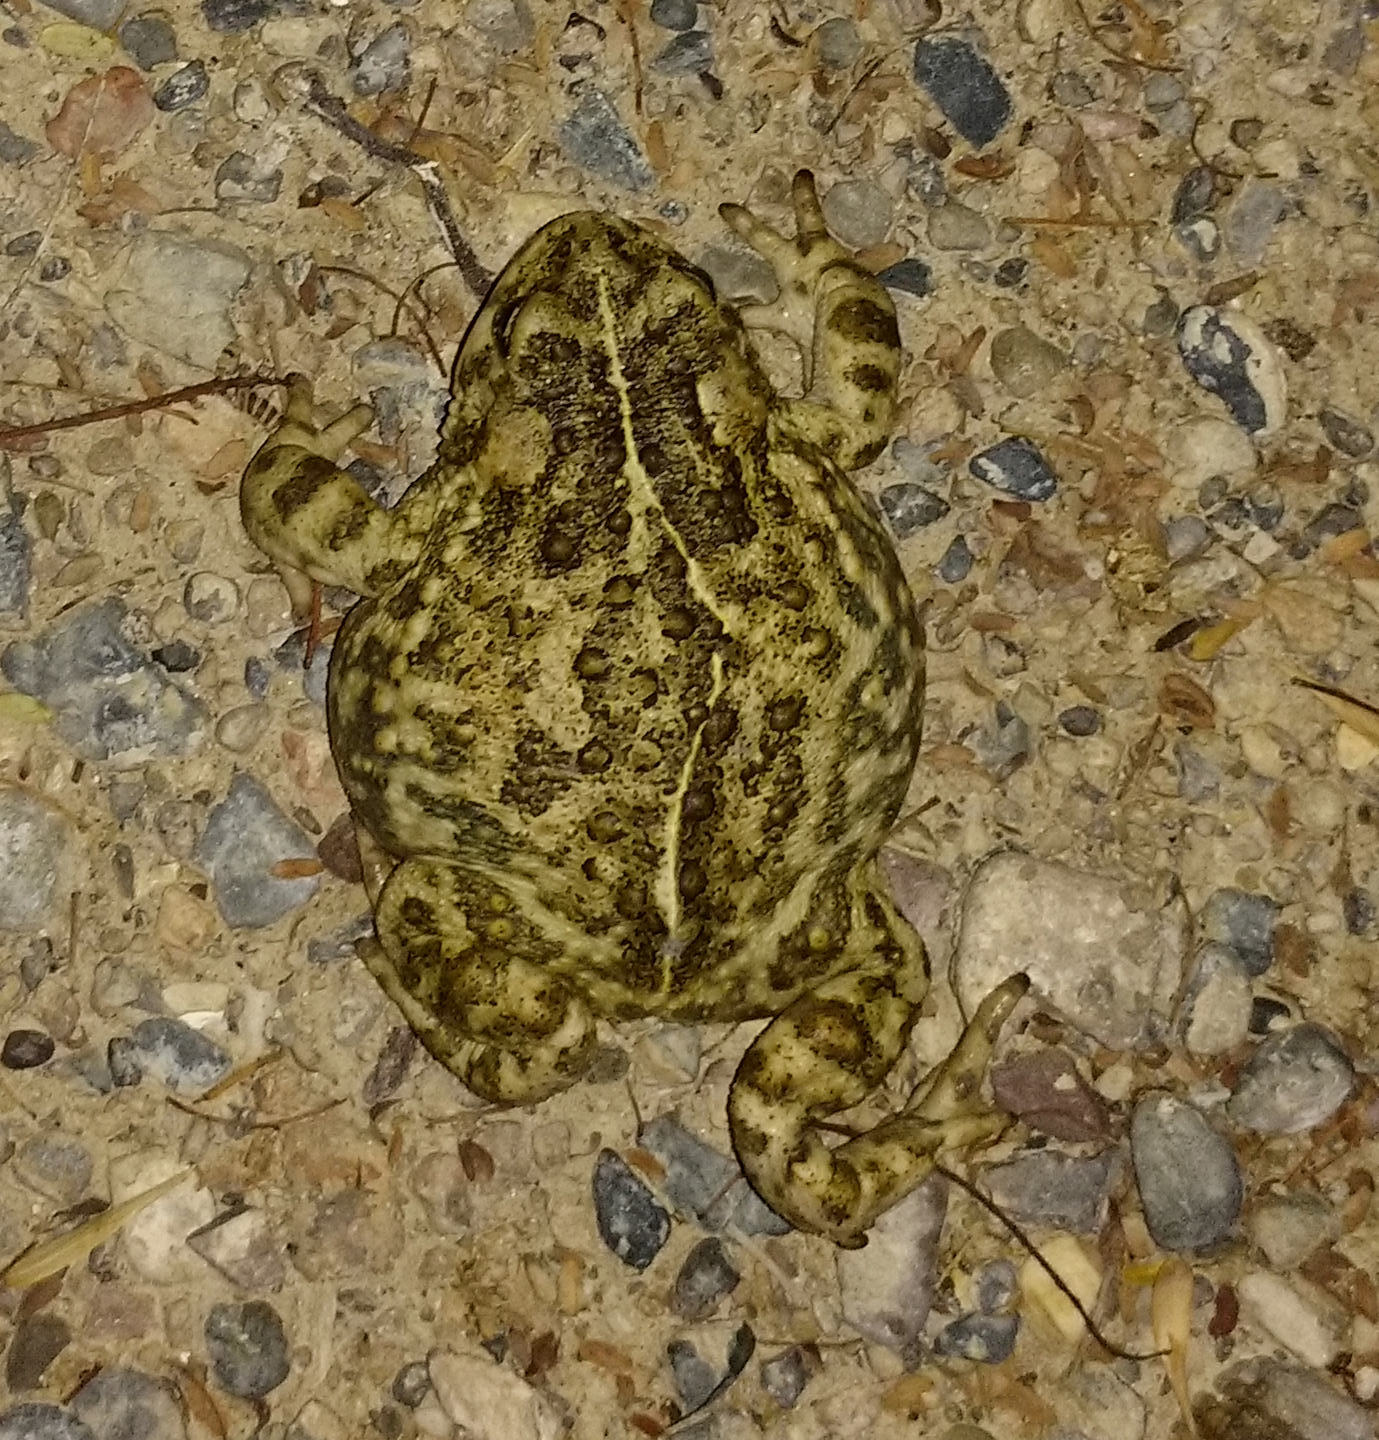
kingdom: Animalia
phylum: Chordata
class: Amphibia
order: Anura
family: Bufonidae
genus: Anaxyrus
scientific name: Anaxyrus boreas
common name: Western toad
